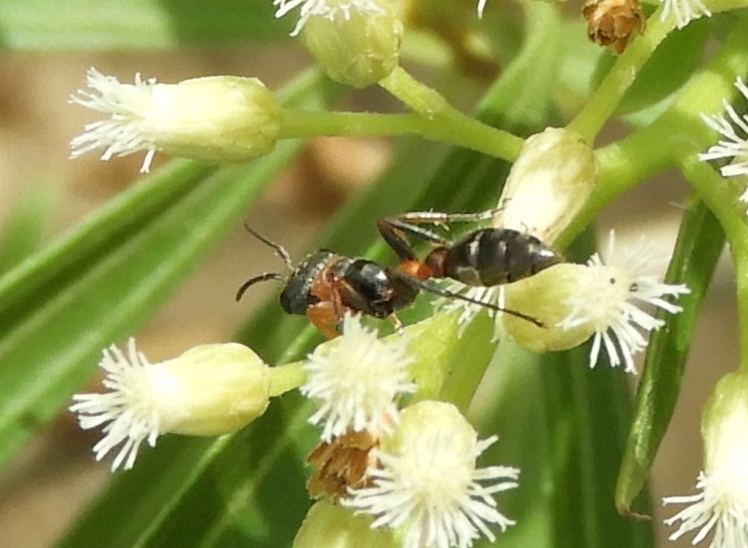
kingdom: Animalia
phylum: Arthropoda
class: Insecta
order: Hymenoptera
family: Formicidae
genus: Pseudomyrmex
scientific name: Pseudomyrmex gracilis
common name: Graceful twig ant
